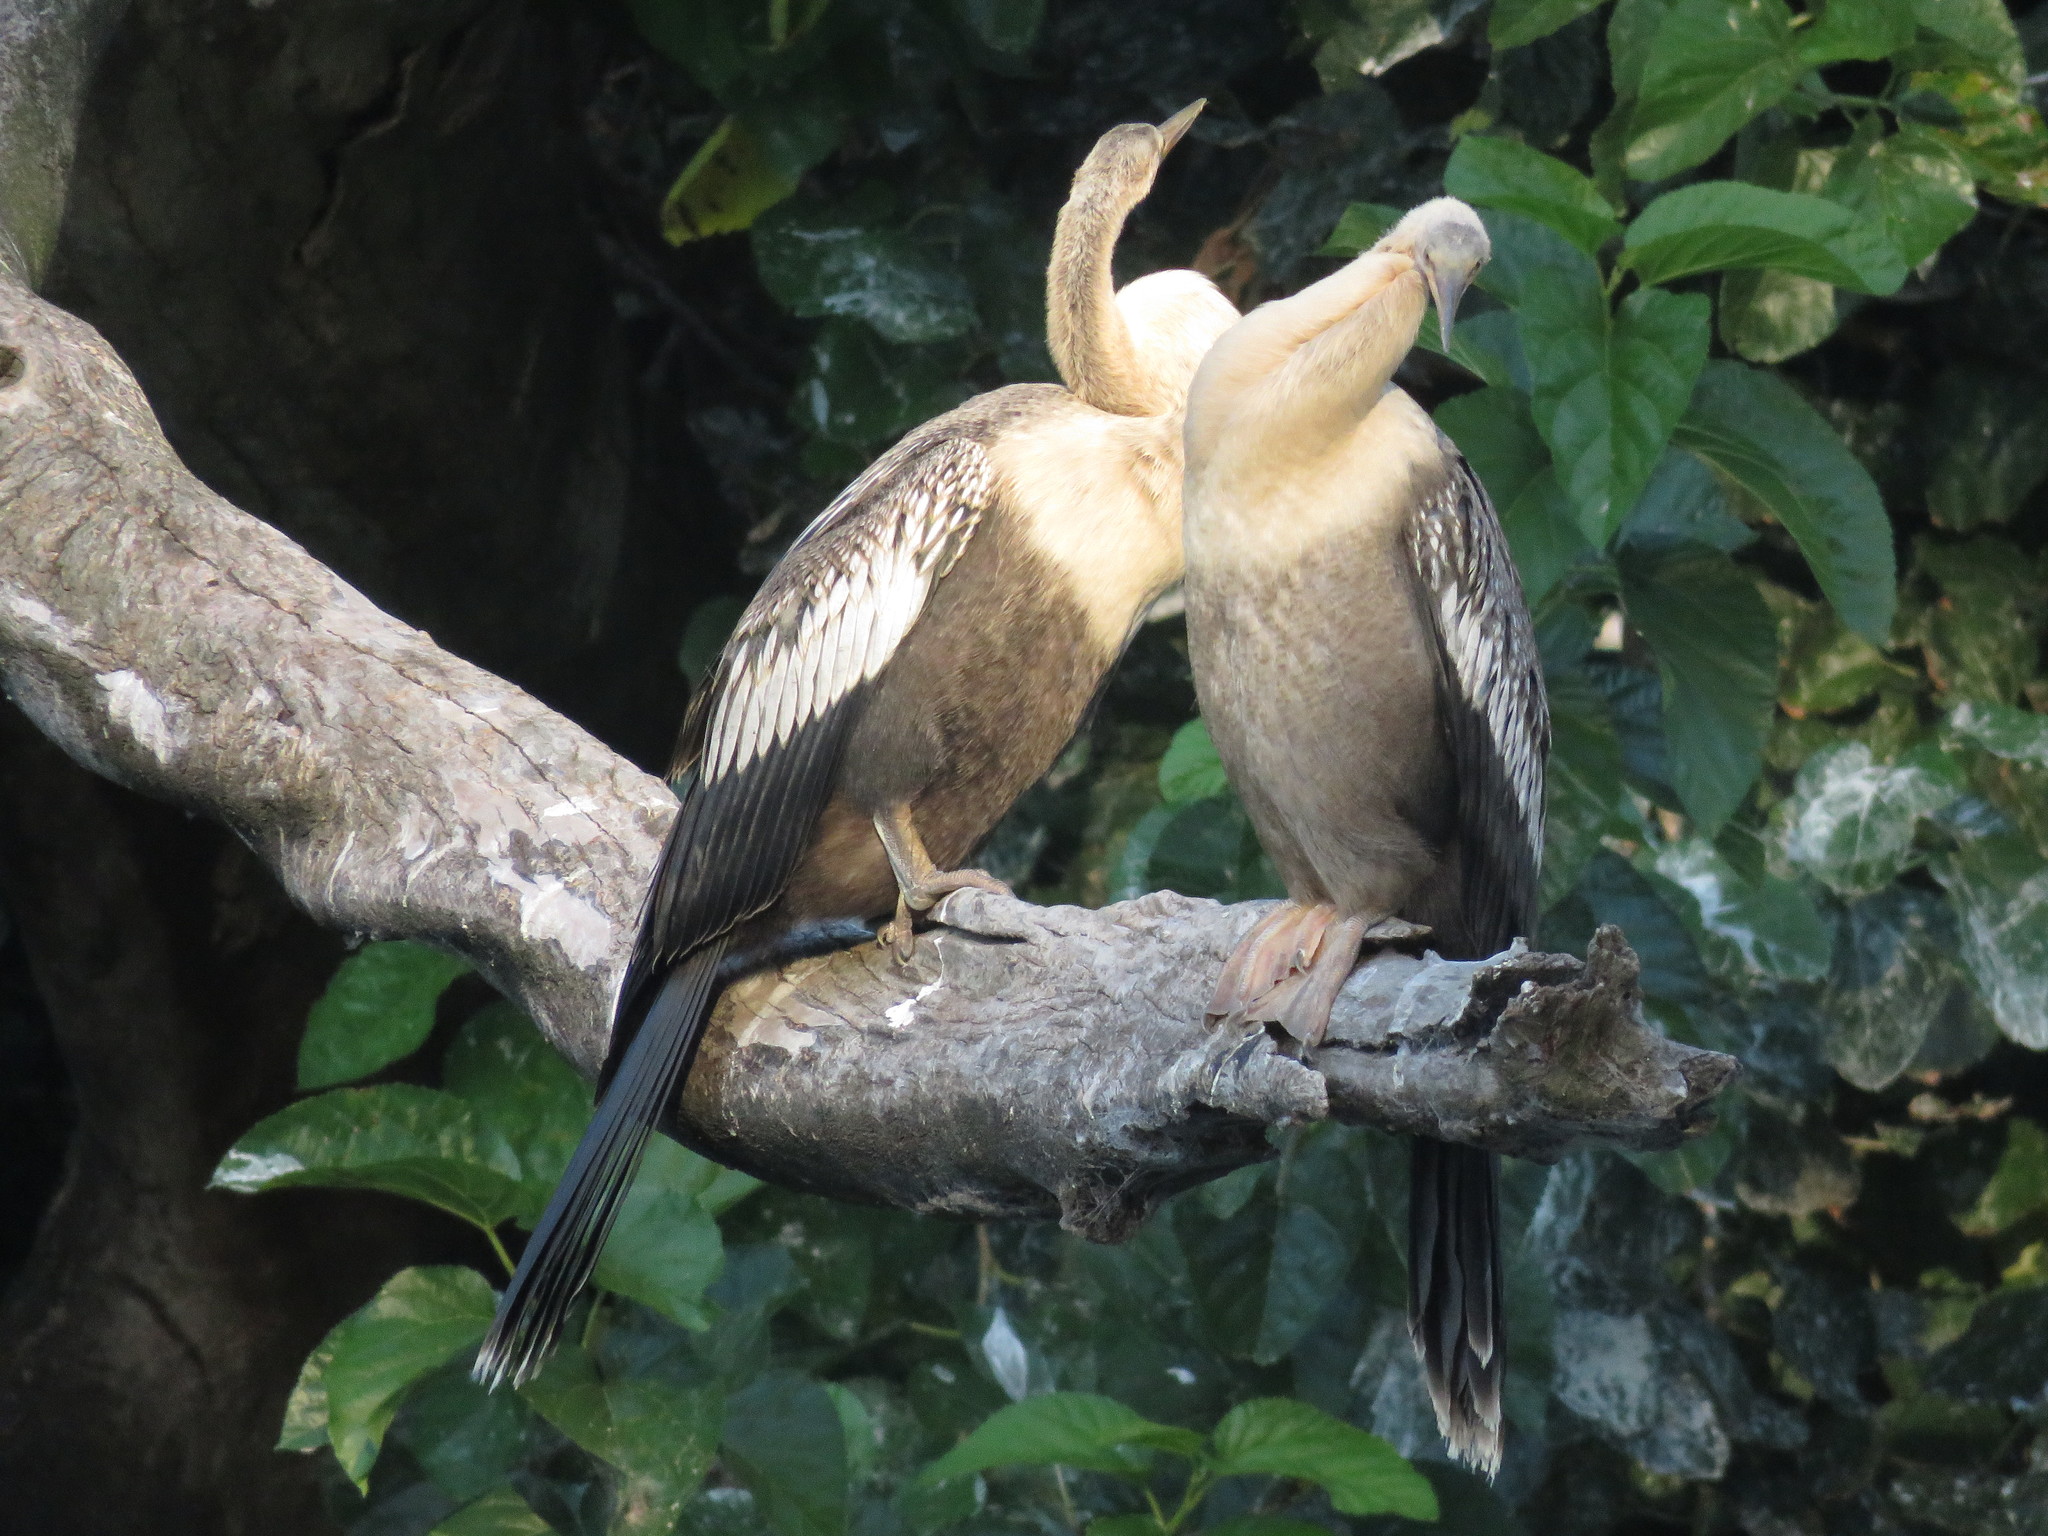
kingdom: Animalia
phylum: Chordata
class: Aves
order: Suliformes
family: Anhingidae
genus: Anhinga
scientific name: Anhinga anhinga
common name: Anhinga
